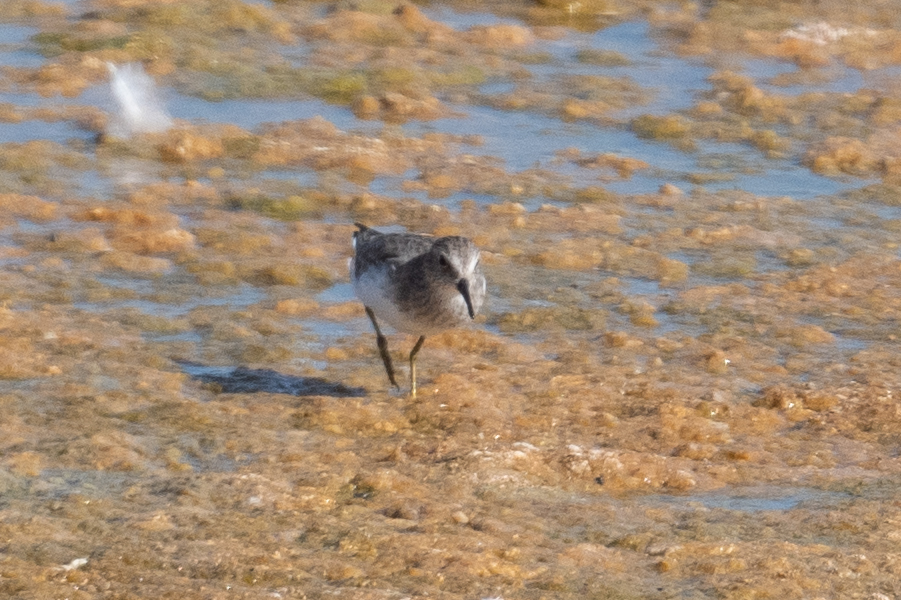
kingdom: Animalia
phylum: Chordata
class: Aves
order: Charadriiformes
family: Scolopacidae
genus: Calidris
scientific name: Calidris minutilla
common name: Least sandpiper
